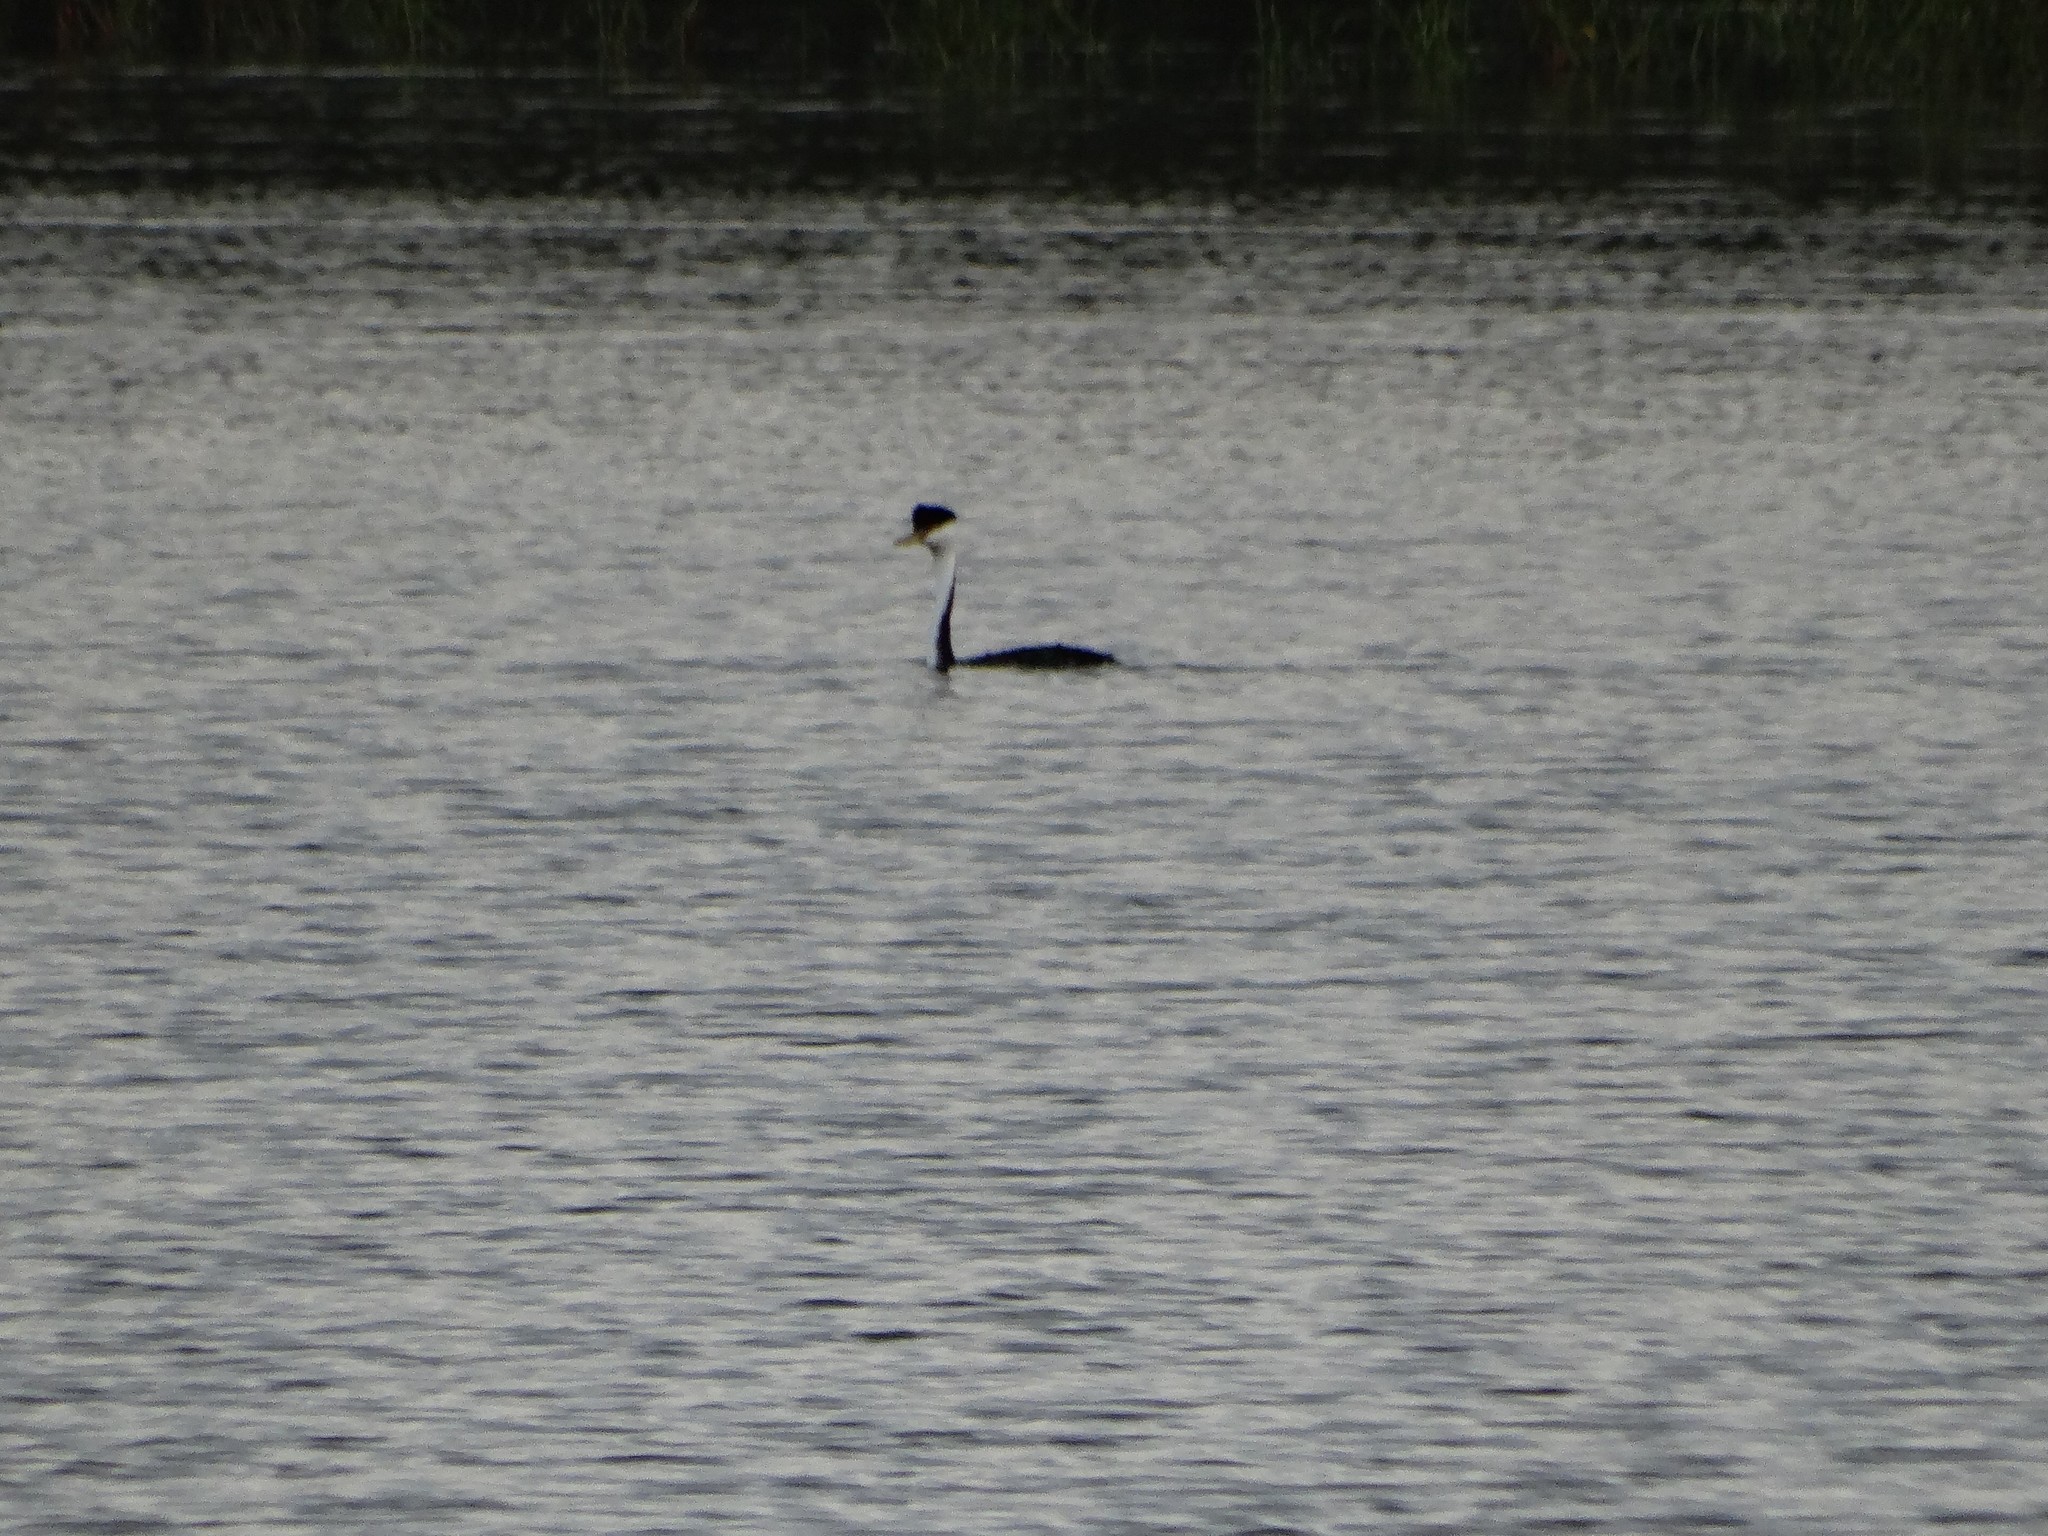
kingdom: Animalia
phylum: Chordata
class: Aves
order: Podicipediformes
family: Podicipedidae
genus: Aechmophorus
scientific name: Aechmophorus occidentalis
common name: Western grebe
